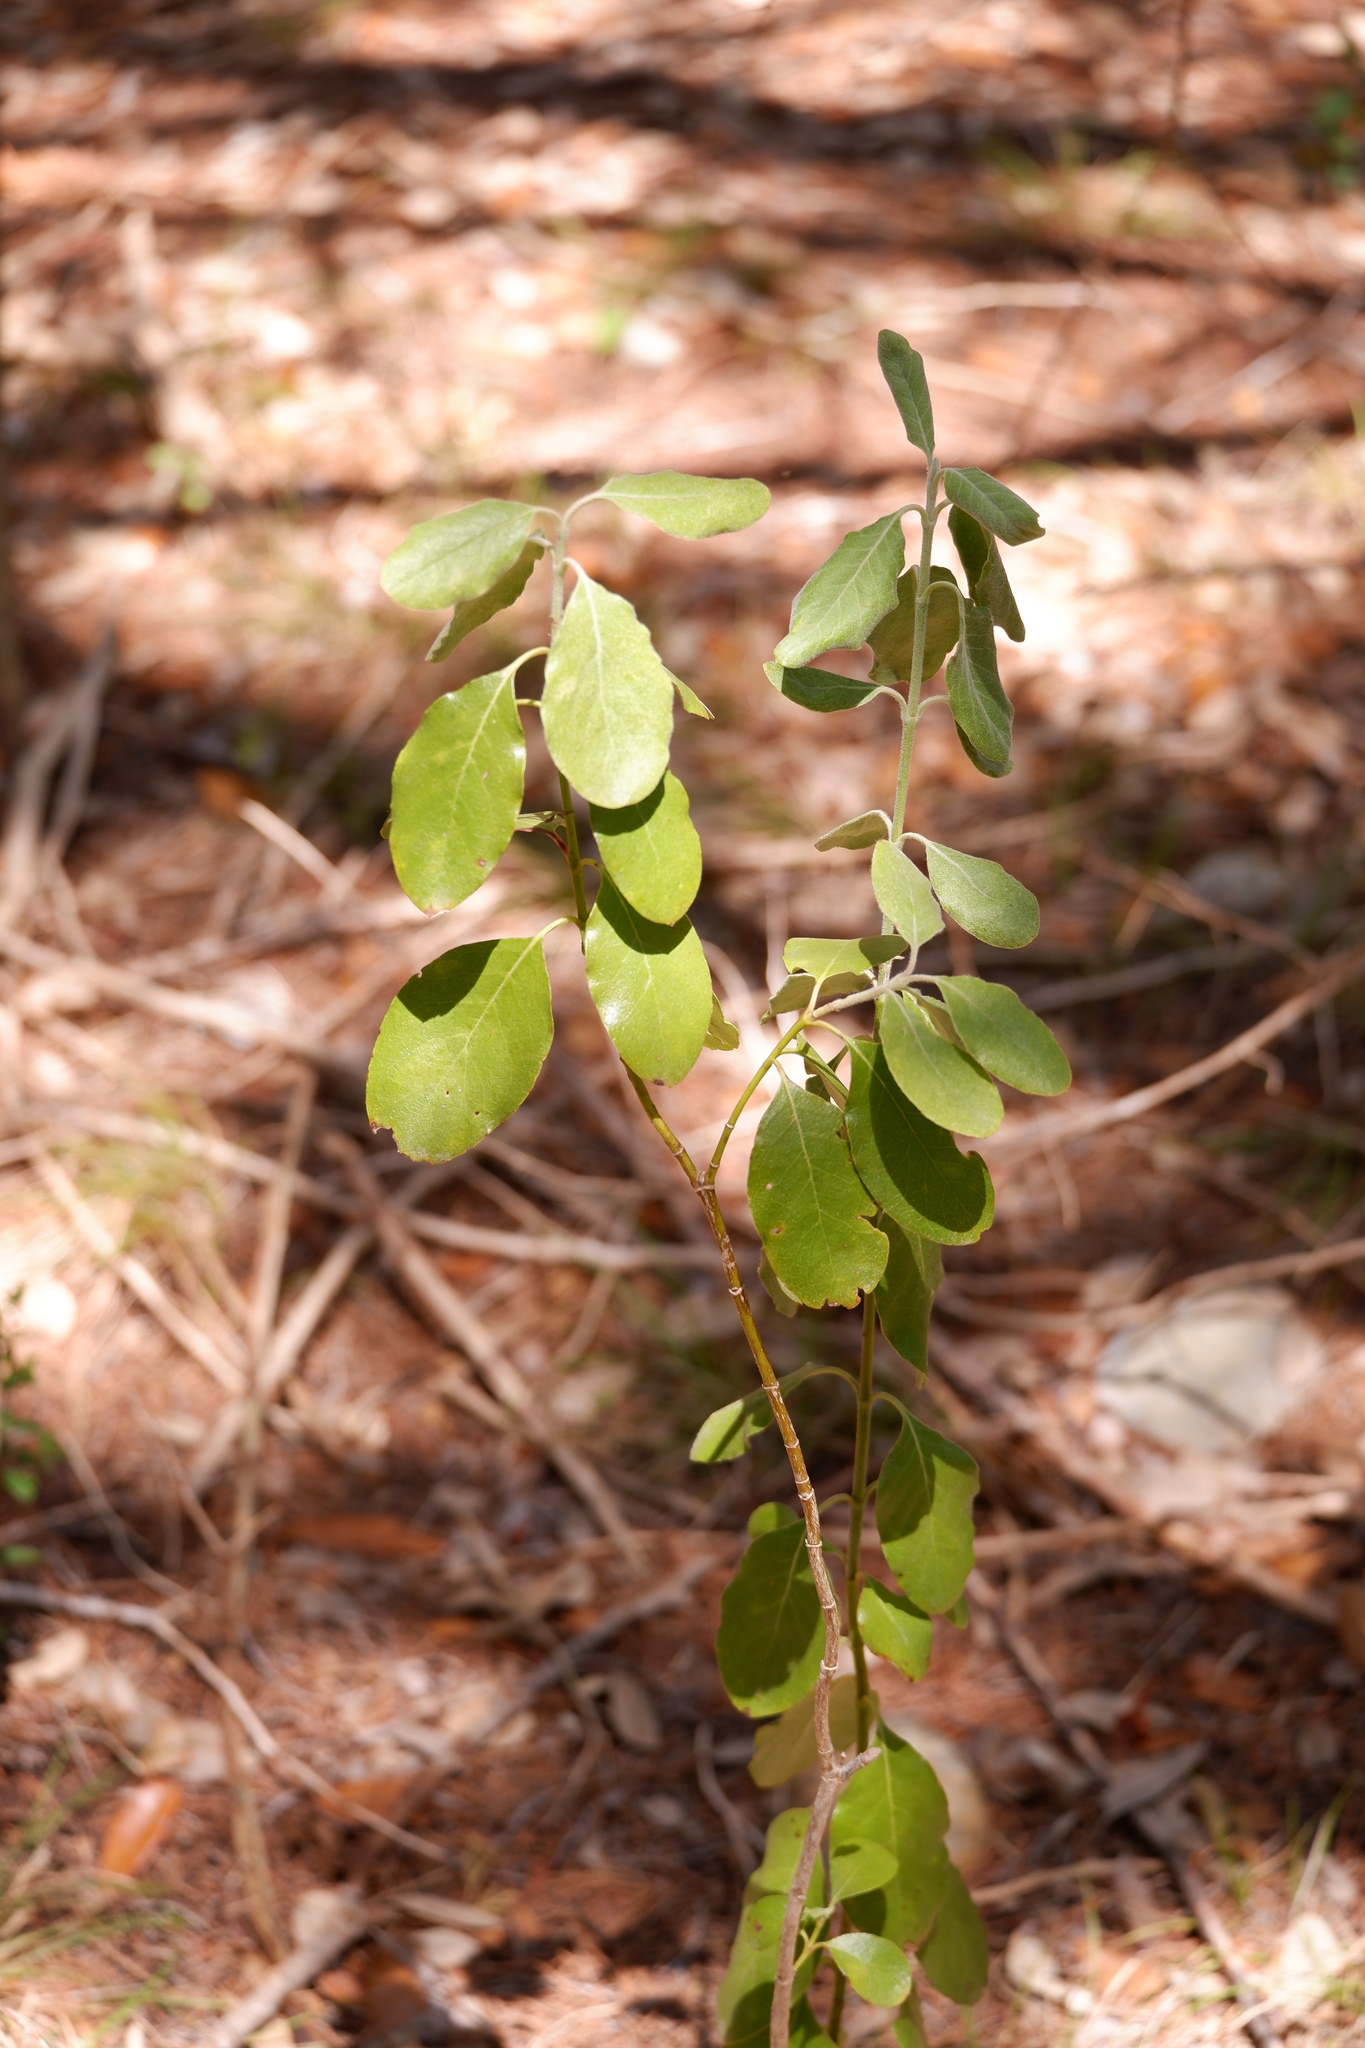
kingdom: Plantae
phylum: Tracheophyta
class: Magnoliopsida
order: Garryales
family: Garryaceae
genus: Garrya
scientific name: Garrya lindheimeri
